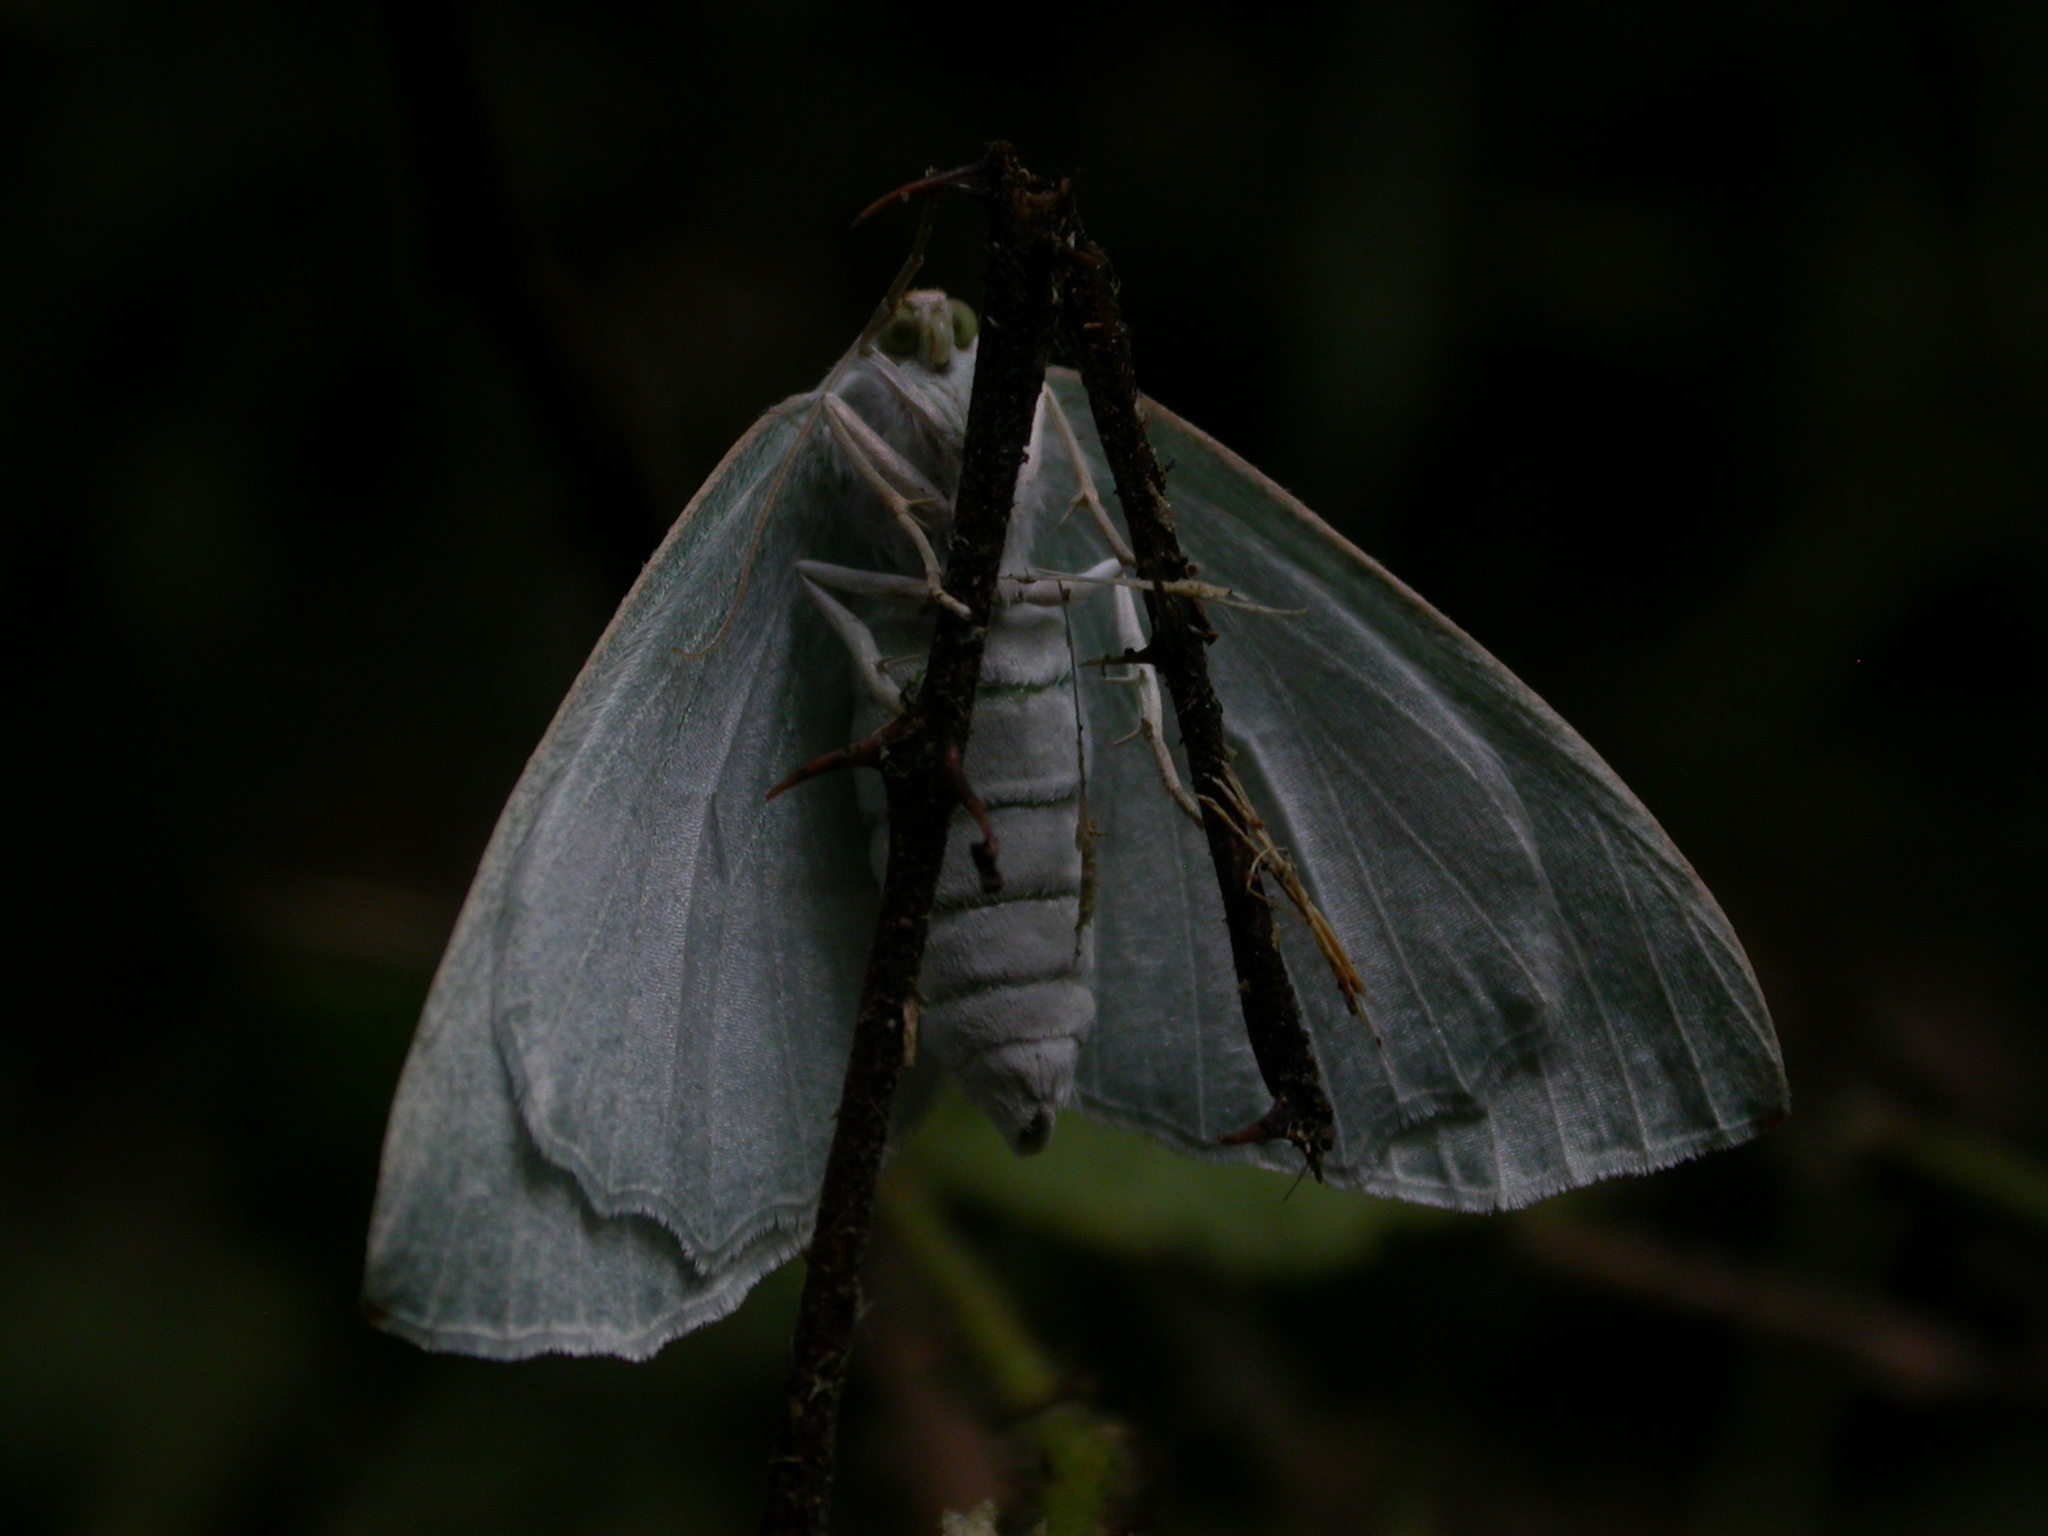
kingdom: Animalia
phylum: Arthropoda
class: Insecta
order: Lepidoptera
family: Geometridae
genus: Campaea
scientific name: Campaea margaritaria
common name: Light emerald
